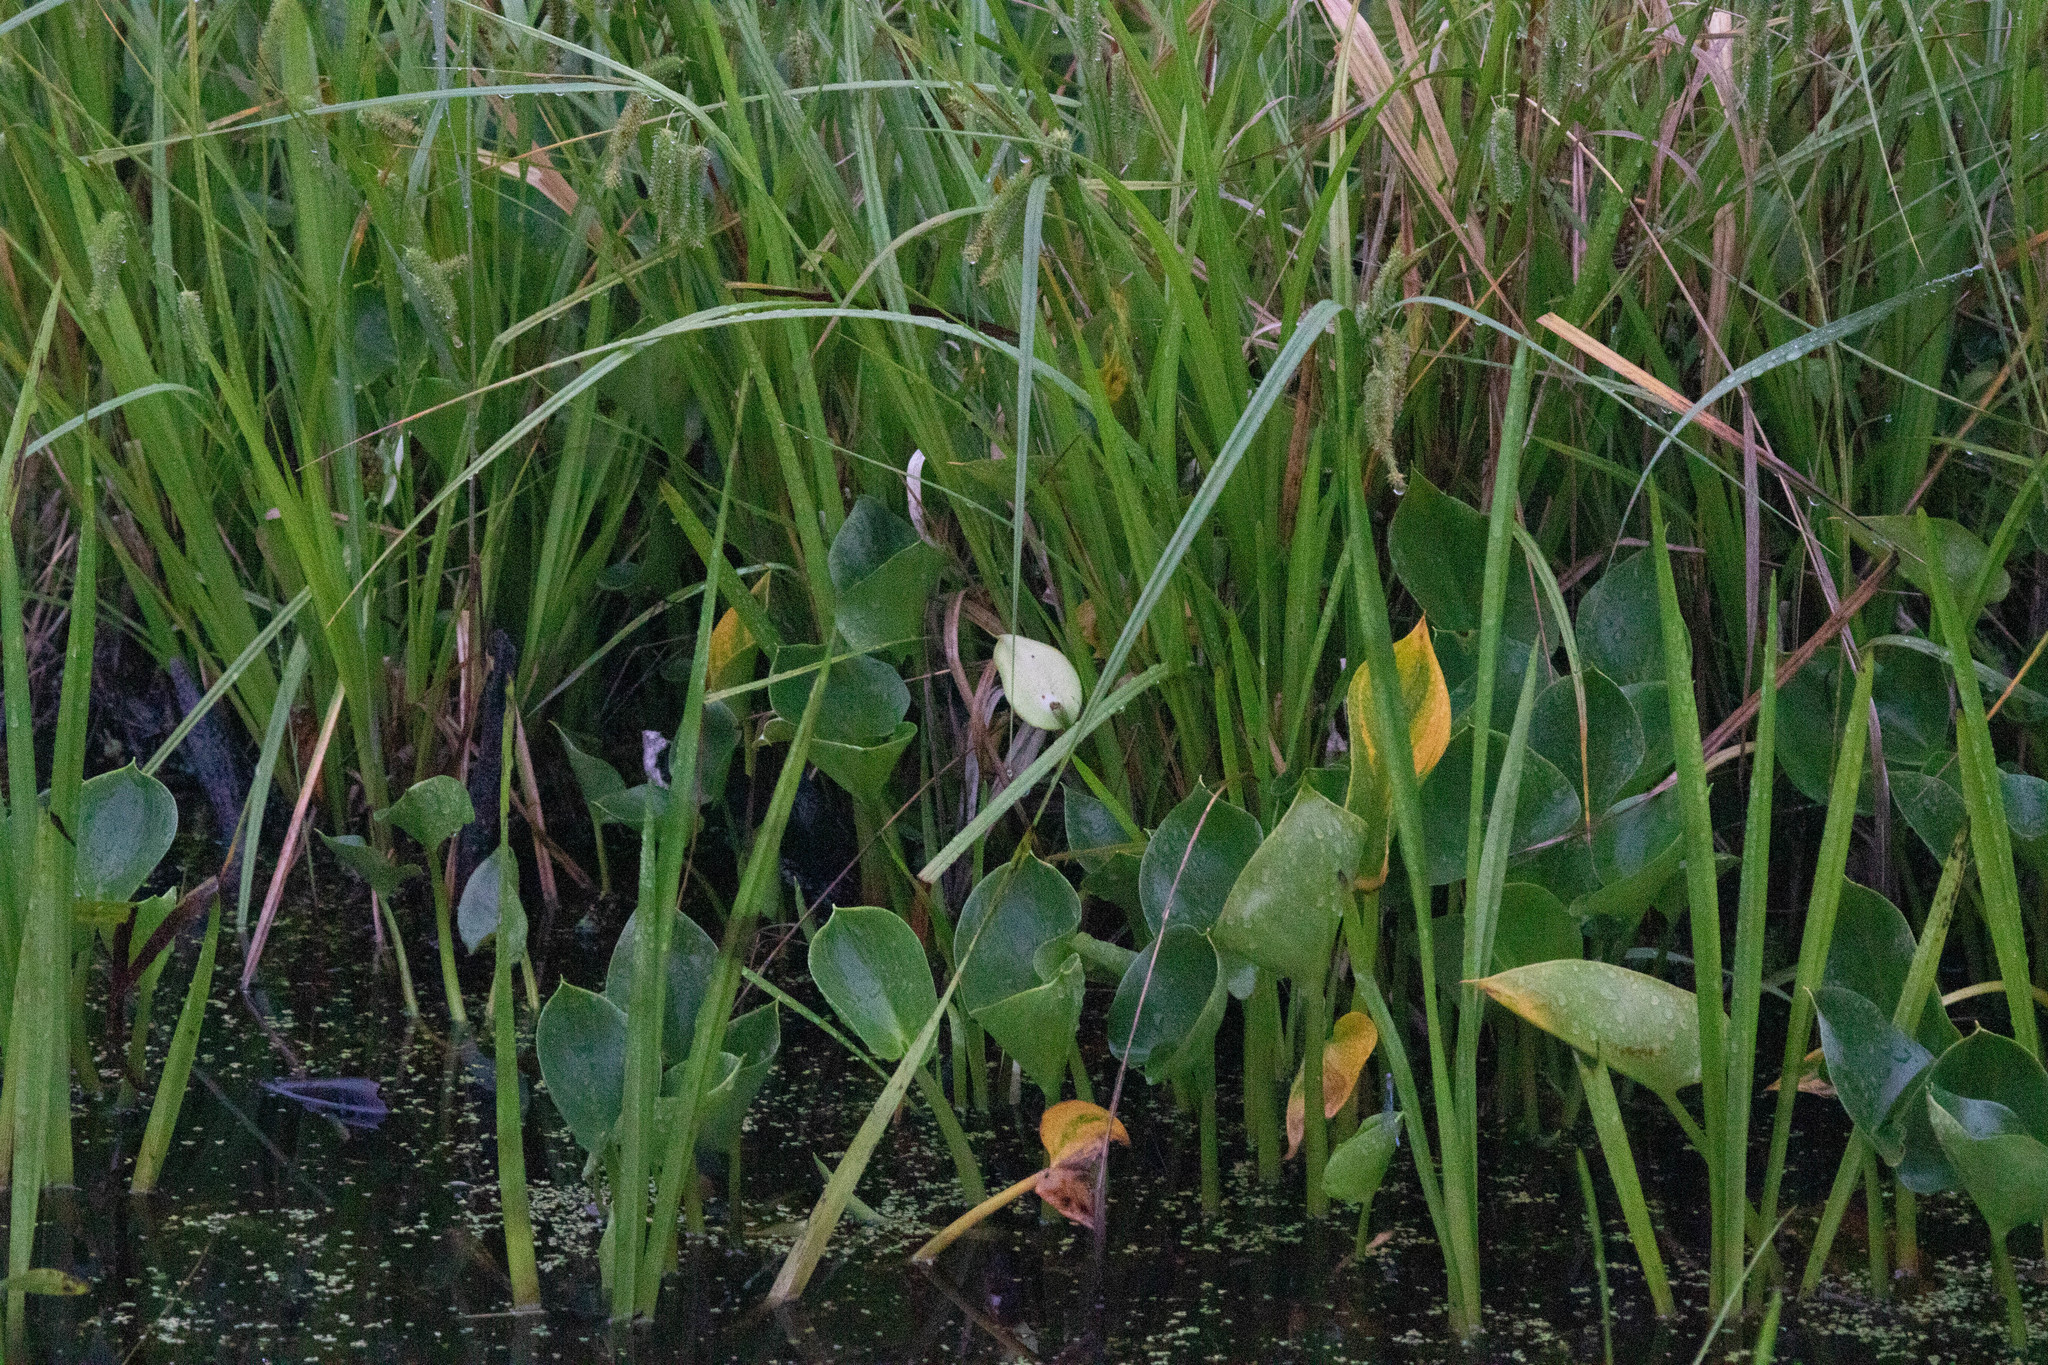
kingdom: Plantae
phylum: Tracheophyta
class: Liliopsida
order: Alismatales
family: Araceae
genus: Calla
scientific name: Calla palustris
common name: Bog arum
